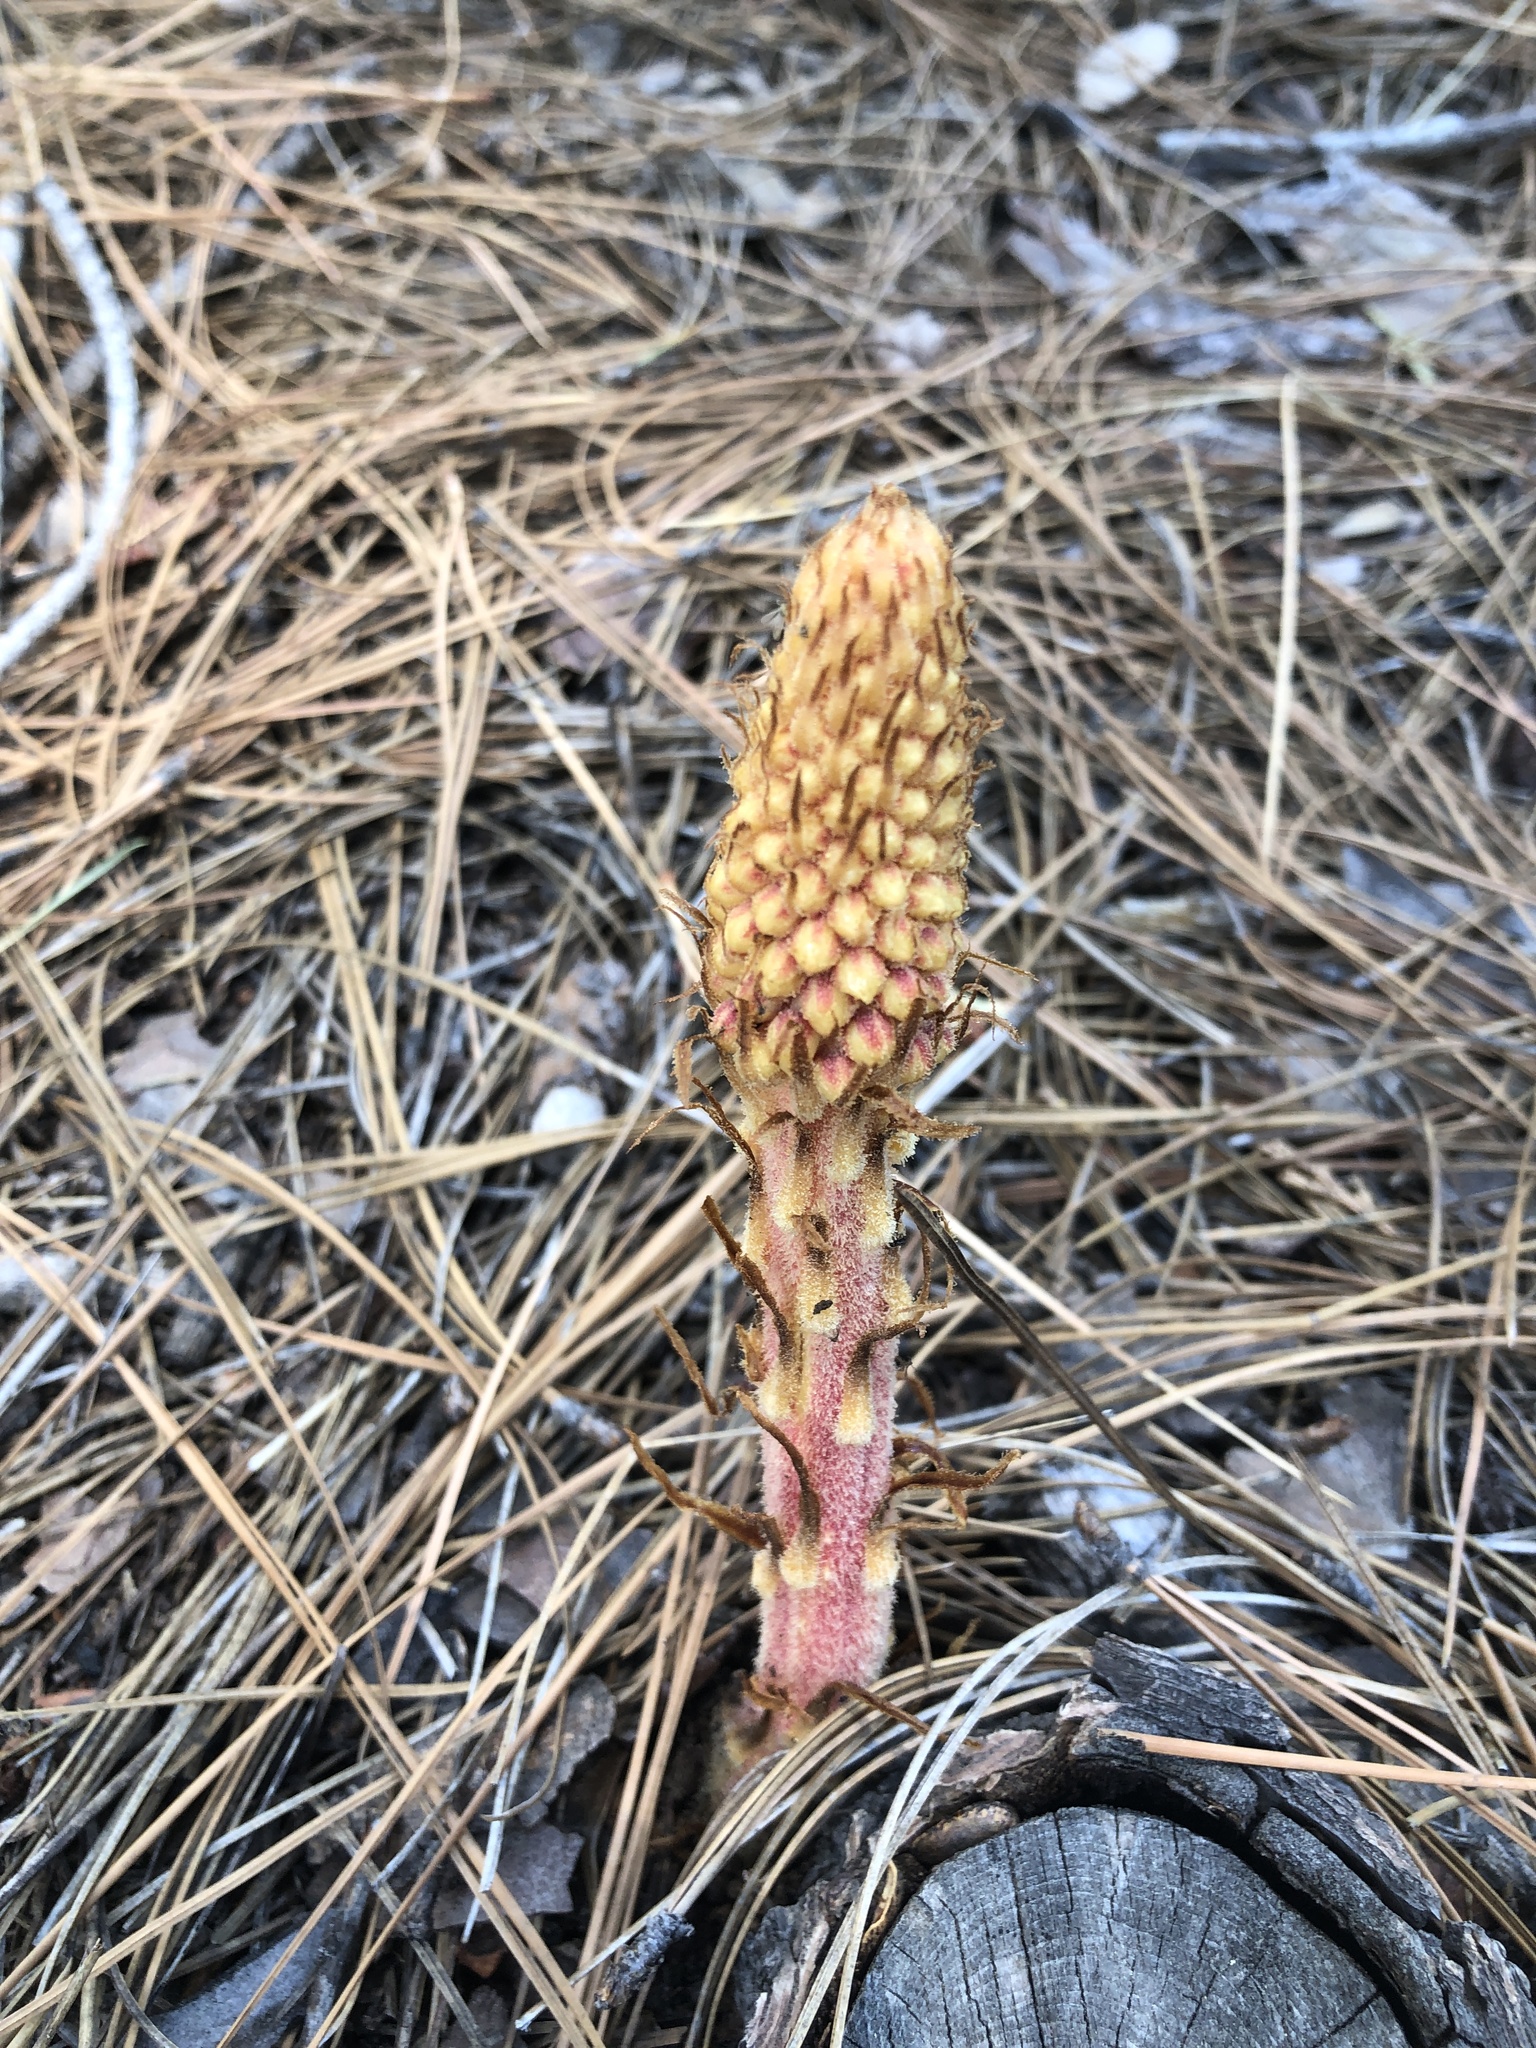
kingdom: Plantae
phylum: Tracheophyta
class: Magnoliopsida
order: Ericales
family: Ericaceae
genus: Pterospora
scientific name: Pterospora andromedea
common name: Giant bird's-nest
